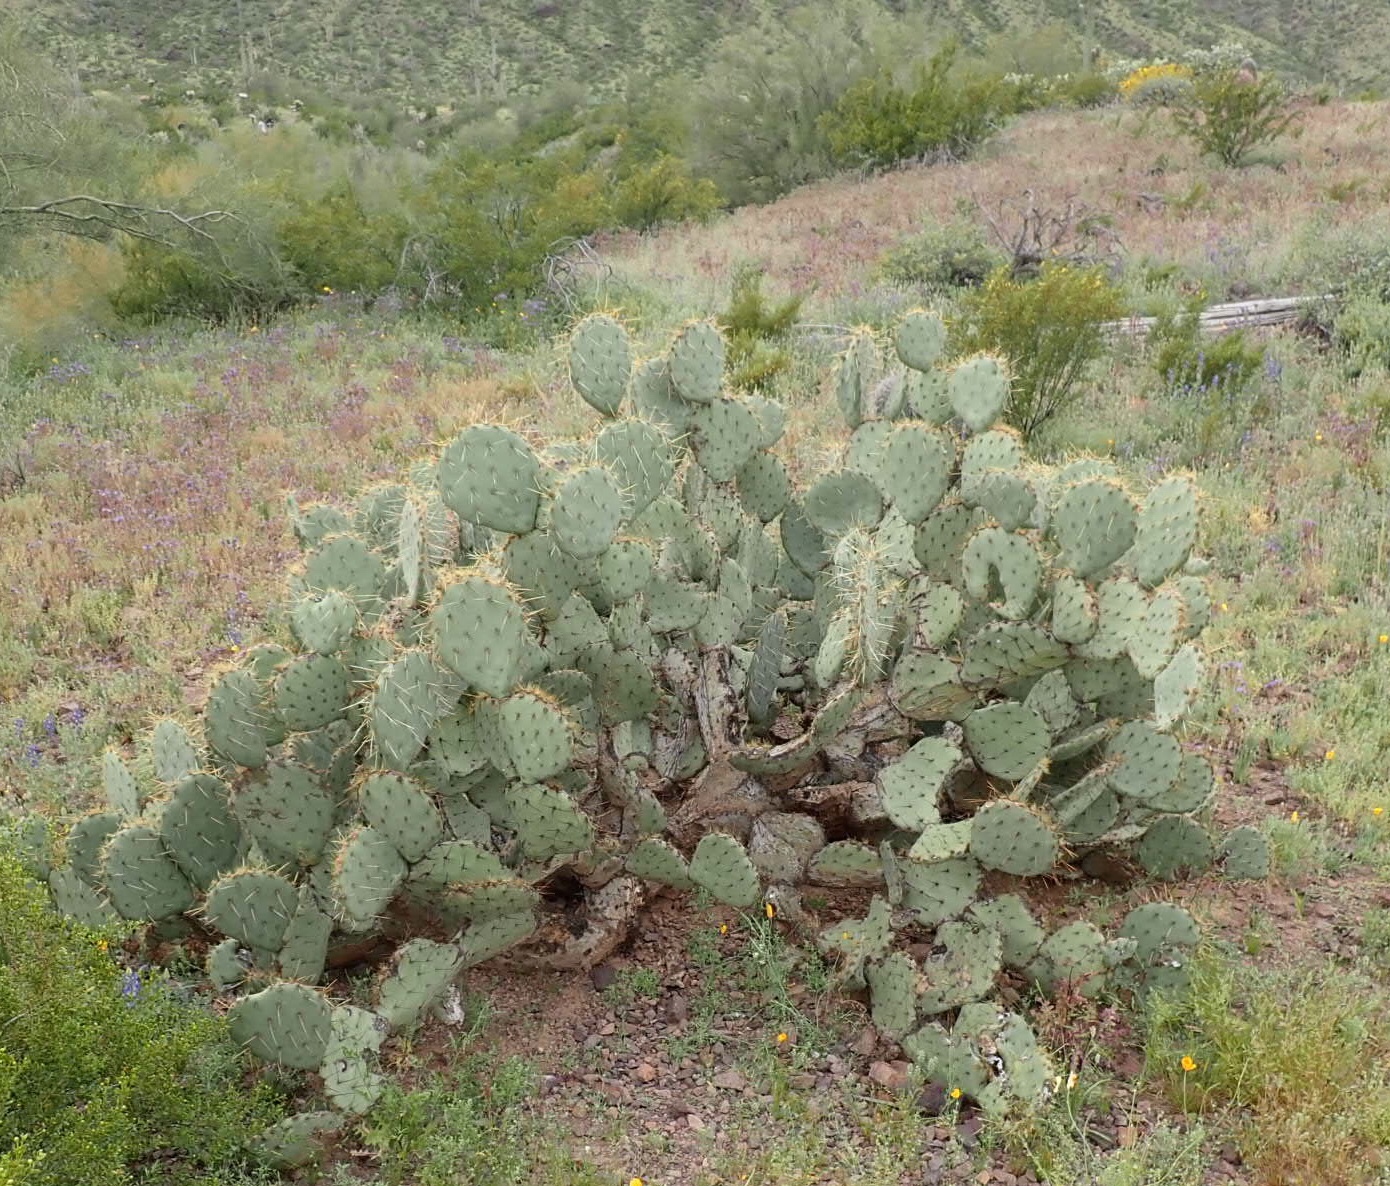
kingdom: Plantae
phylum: Tracheophyta
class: Magnoliopsida
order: Caryophyllales
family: Cactaceae
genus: Opuntia
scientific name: Opuntia engelmannii
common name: Cactus-apple
